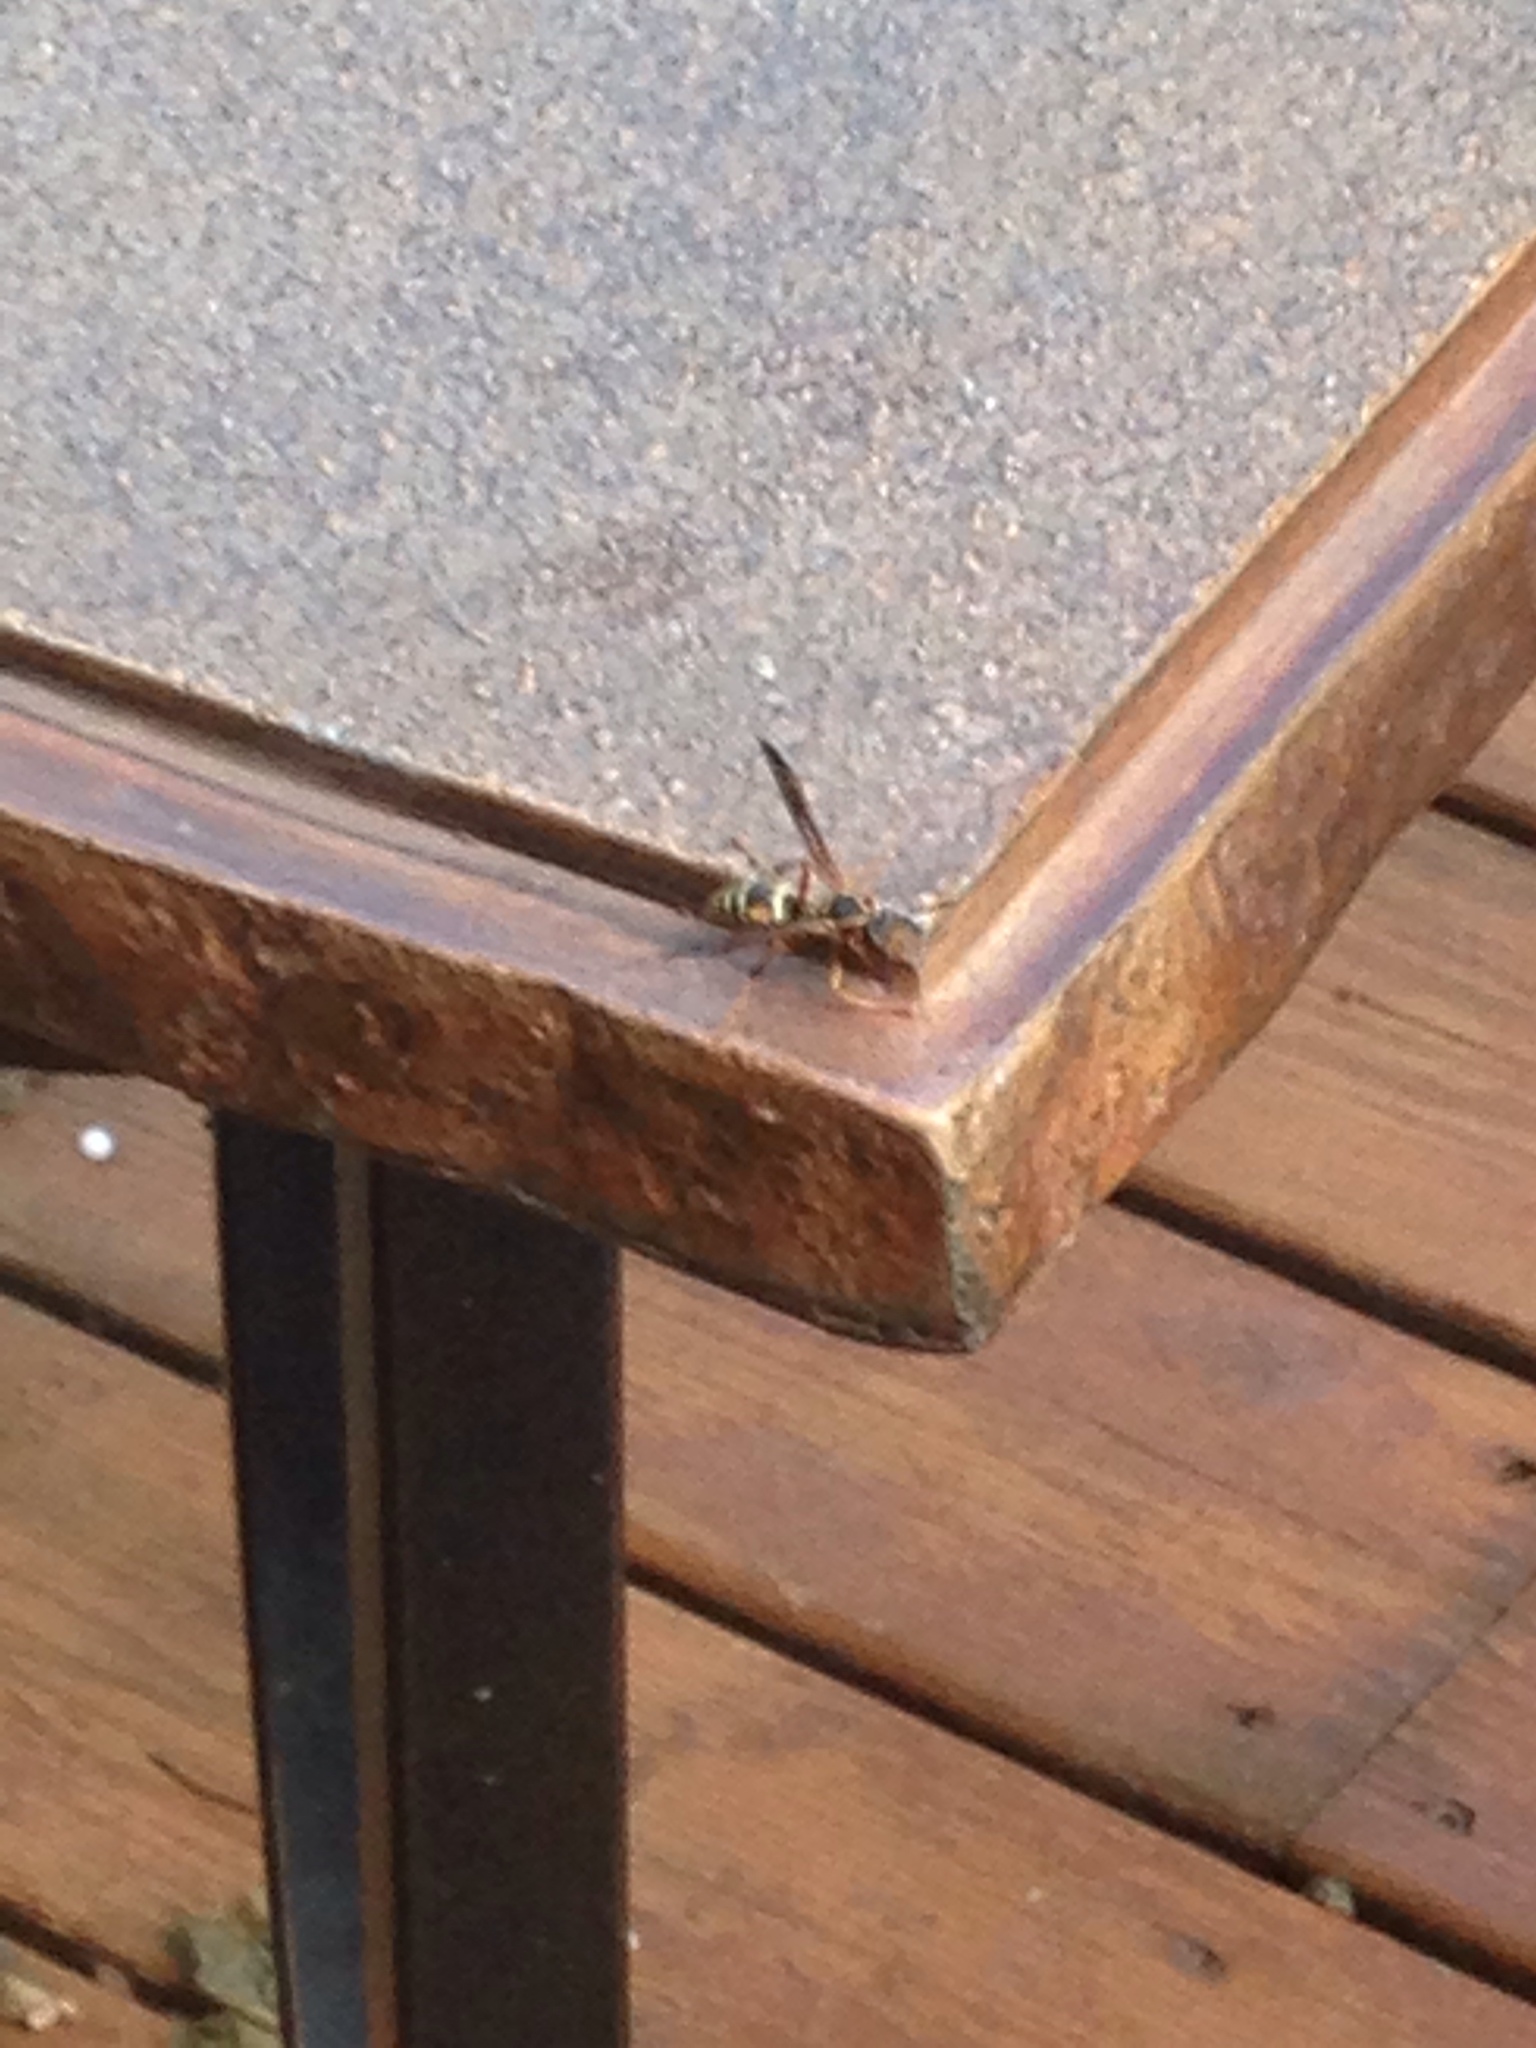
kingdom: Animalia
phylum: Arthropoda
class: Insecta
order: Hymenoptera
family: Eumenidae
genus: Polistes
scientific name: Polistes fuscatus
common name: Dark paper wasp
